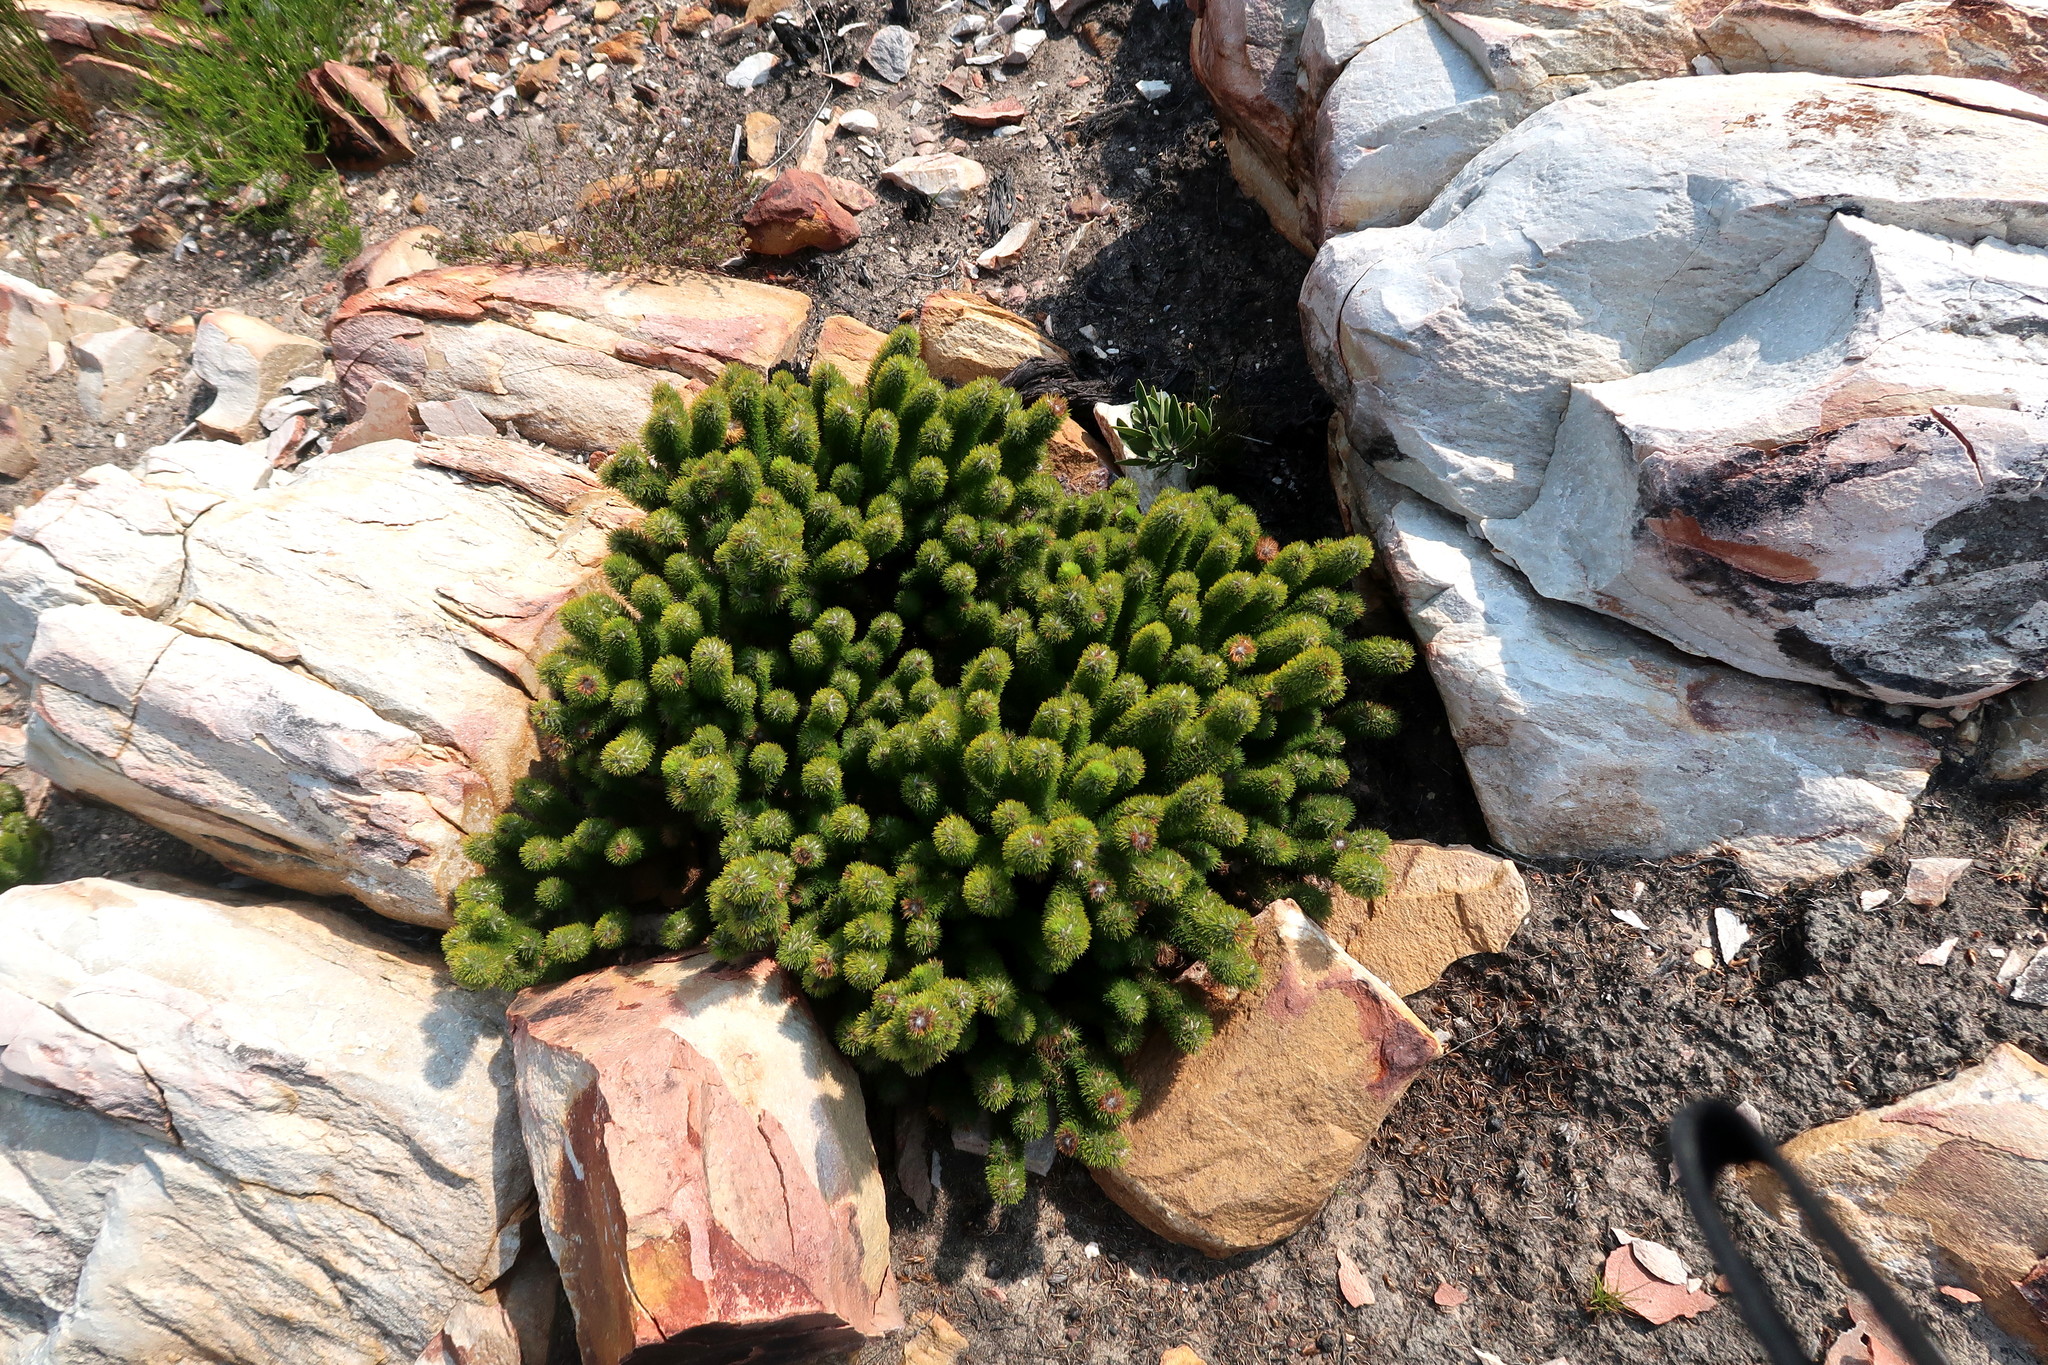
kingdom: Plantae
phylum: Tracheophyta
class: Magnoliopsida
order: Fabales
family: Fabaceae
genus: Aspalathus
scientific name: Aspalathus alopecurus
